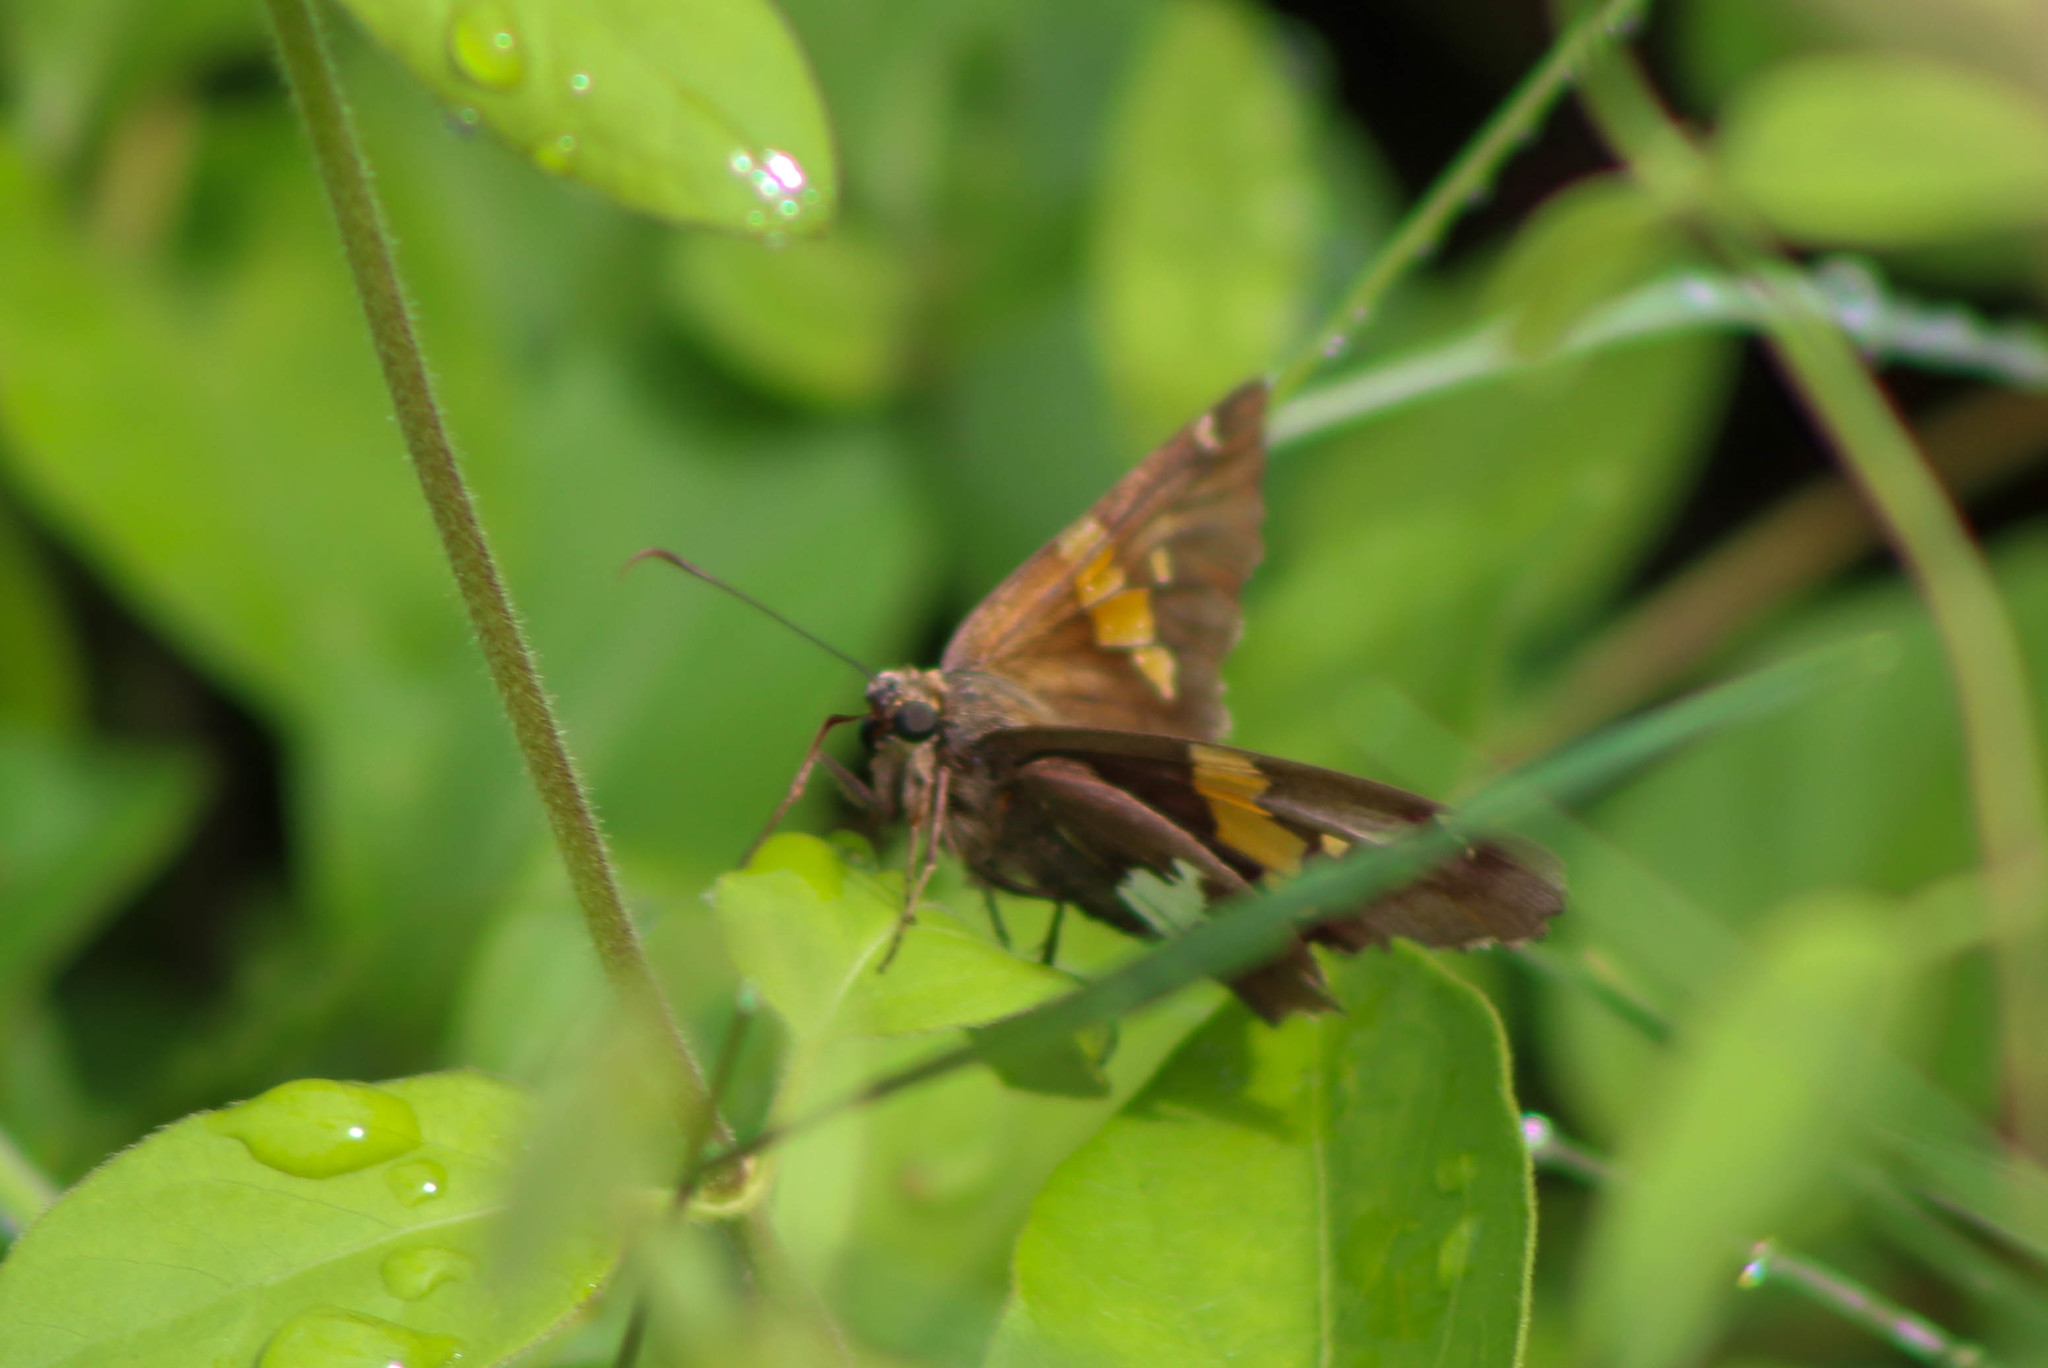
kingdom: Animalia
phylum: Arthropoda
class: Insecta
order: Lepidoptera
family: Hesperiidae
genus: Epargyreus
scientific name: Epargyreus clarus
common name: Silver-spotted skipper
